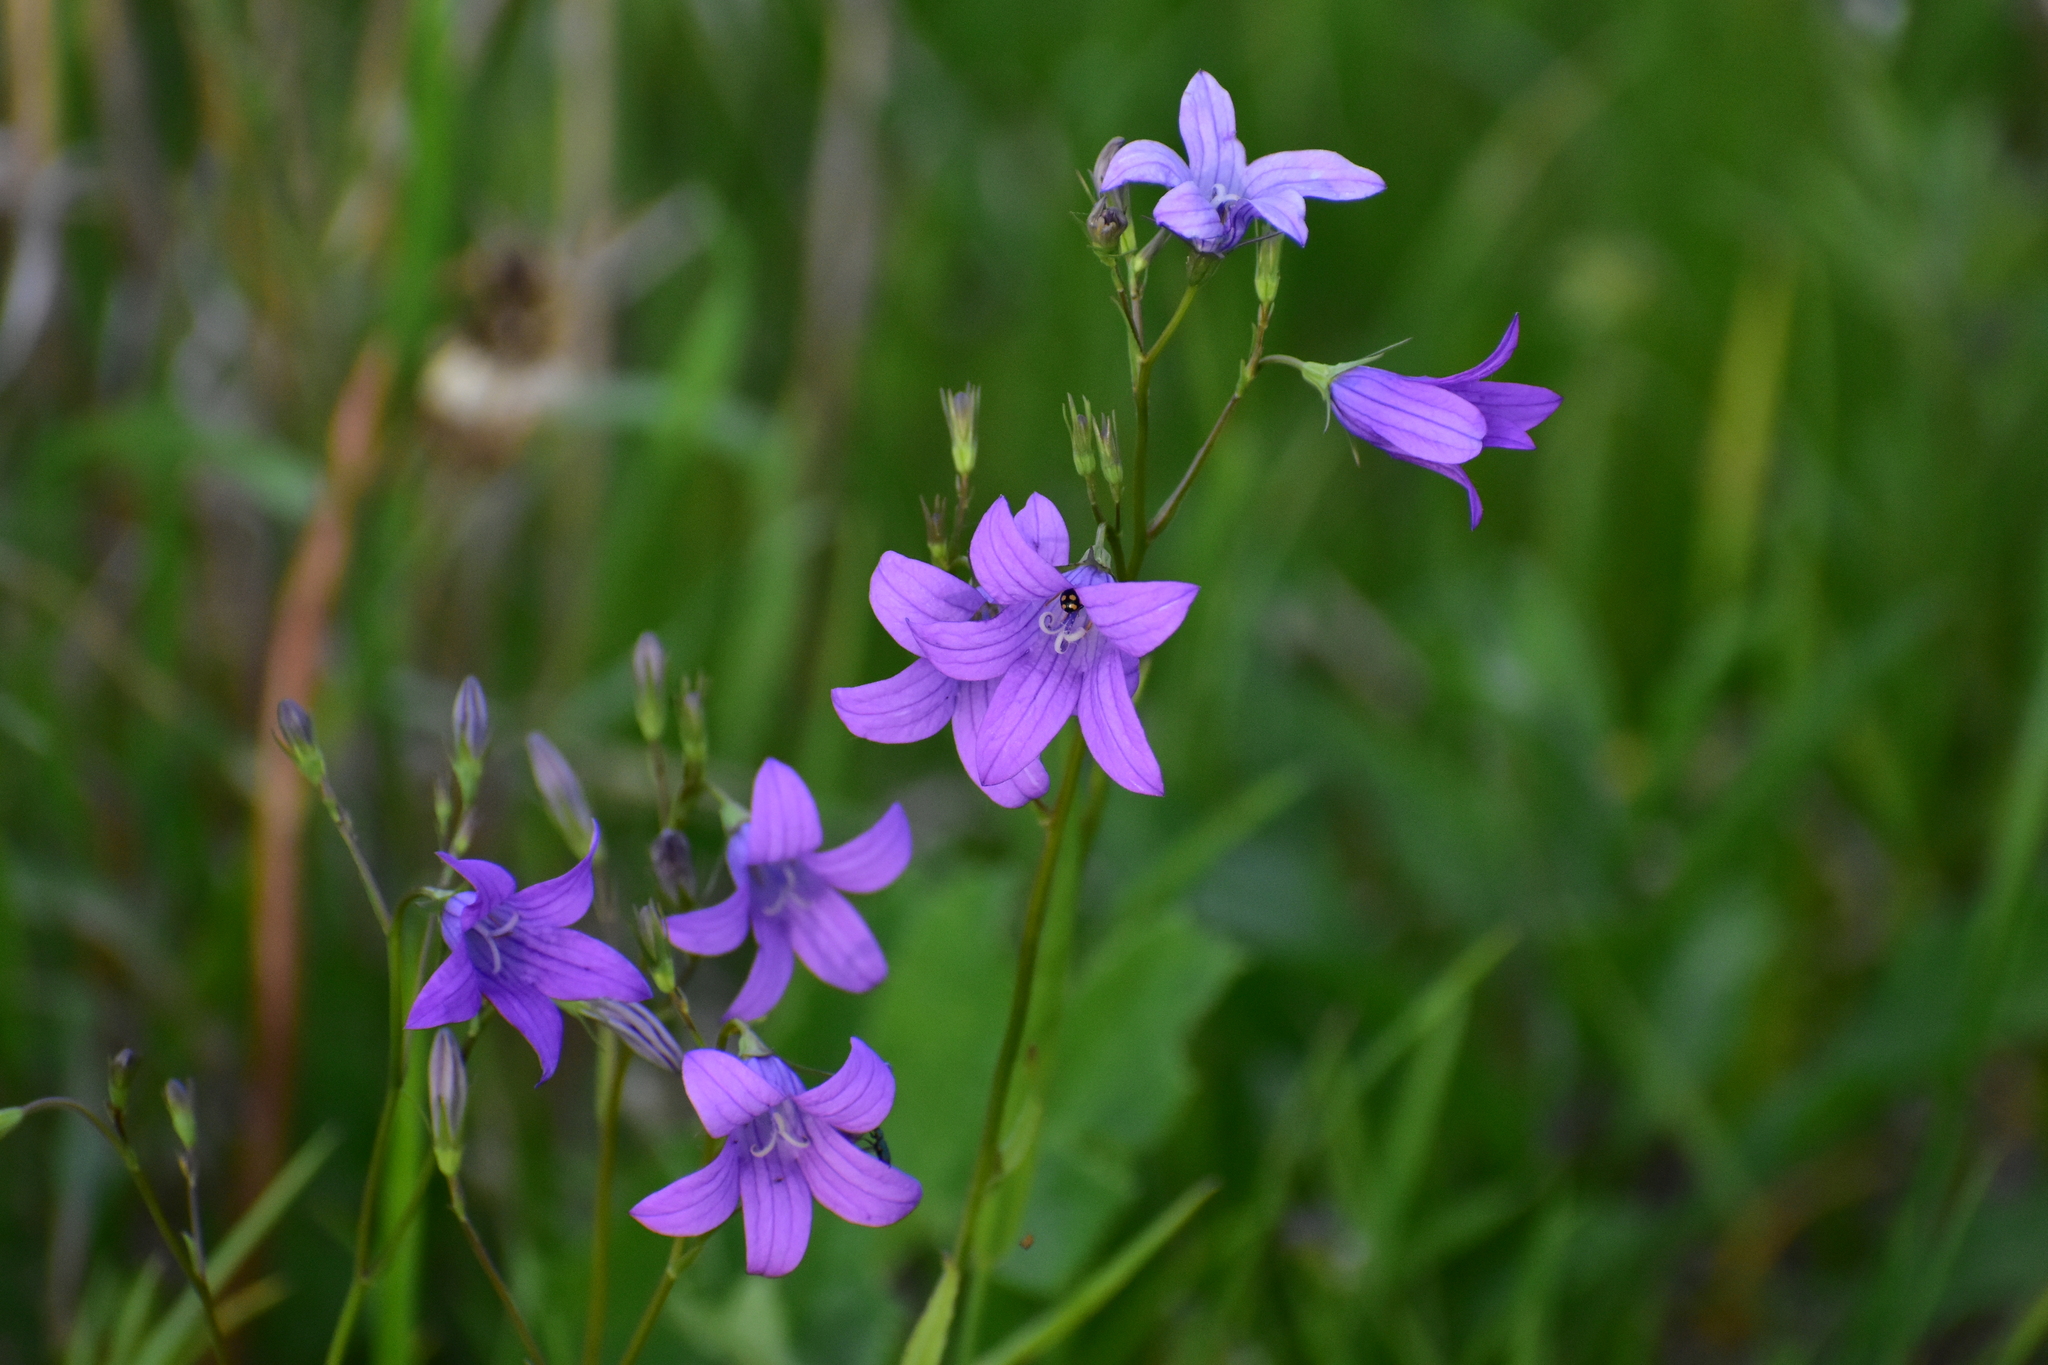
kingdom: Plantae
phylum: Tracheophyta
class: Magnoliopsida
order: Asterales
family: Campanulaceae
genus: Campanula
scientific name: Campanula patula
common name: Spreading bellflower
